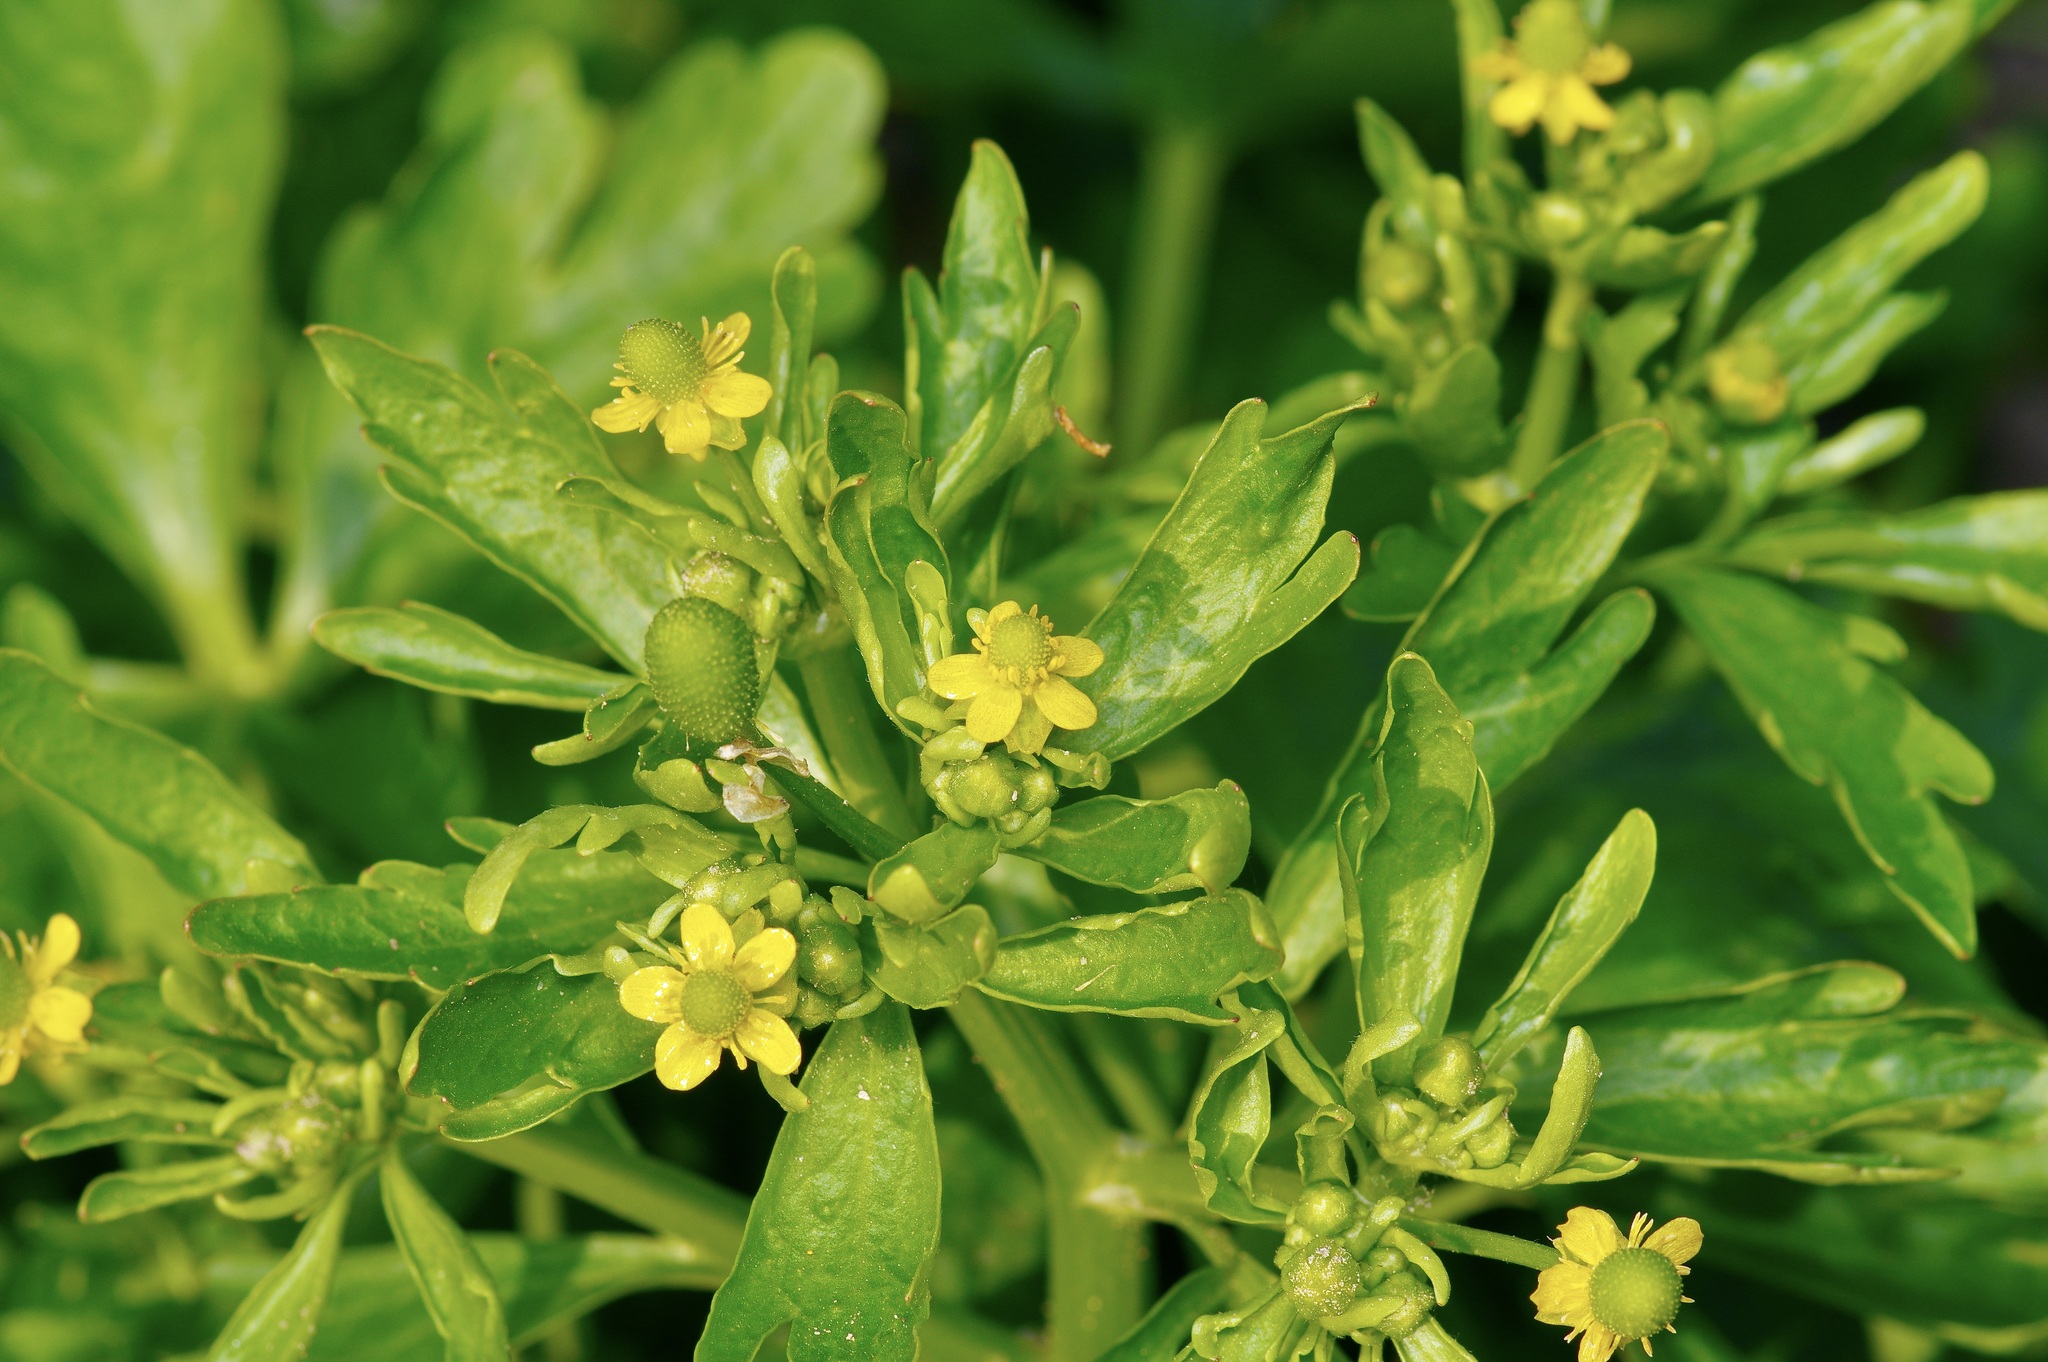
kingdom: Plantae
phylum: Tracheophyta
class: Magnoliopsida
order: Ranunculales
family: Ranunculaceae
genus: Ranunculus
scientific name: Ranunculus sceleratus
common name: Celery-leaved buttercup
